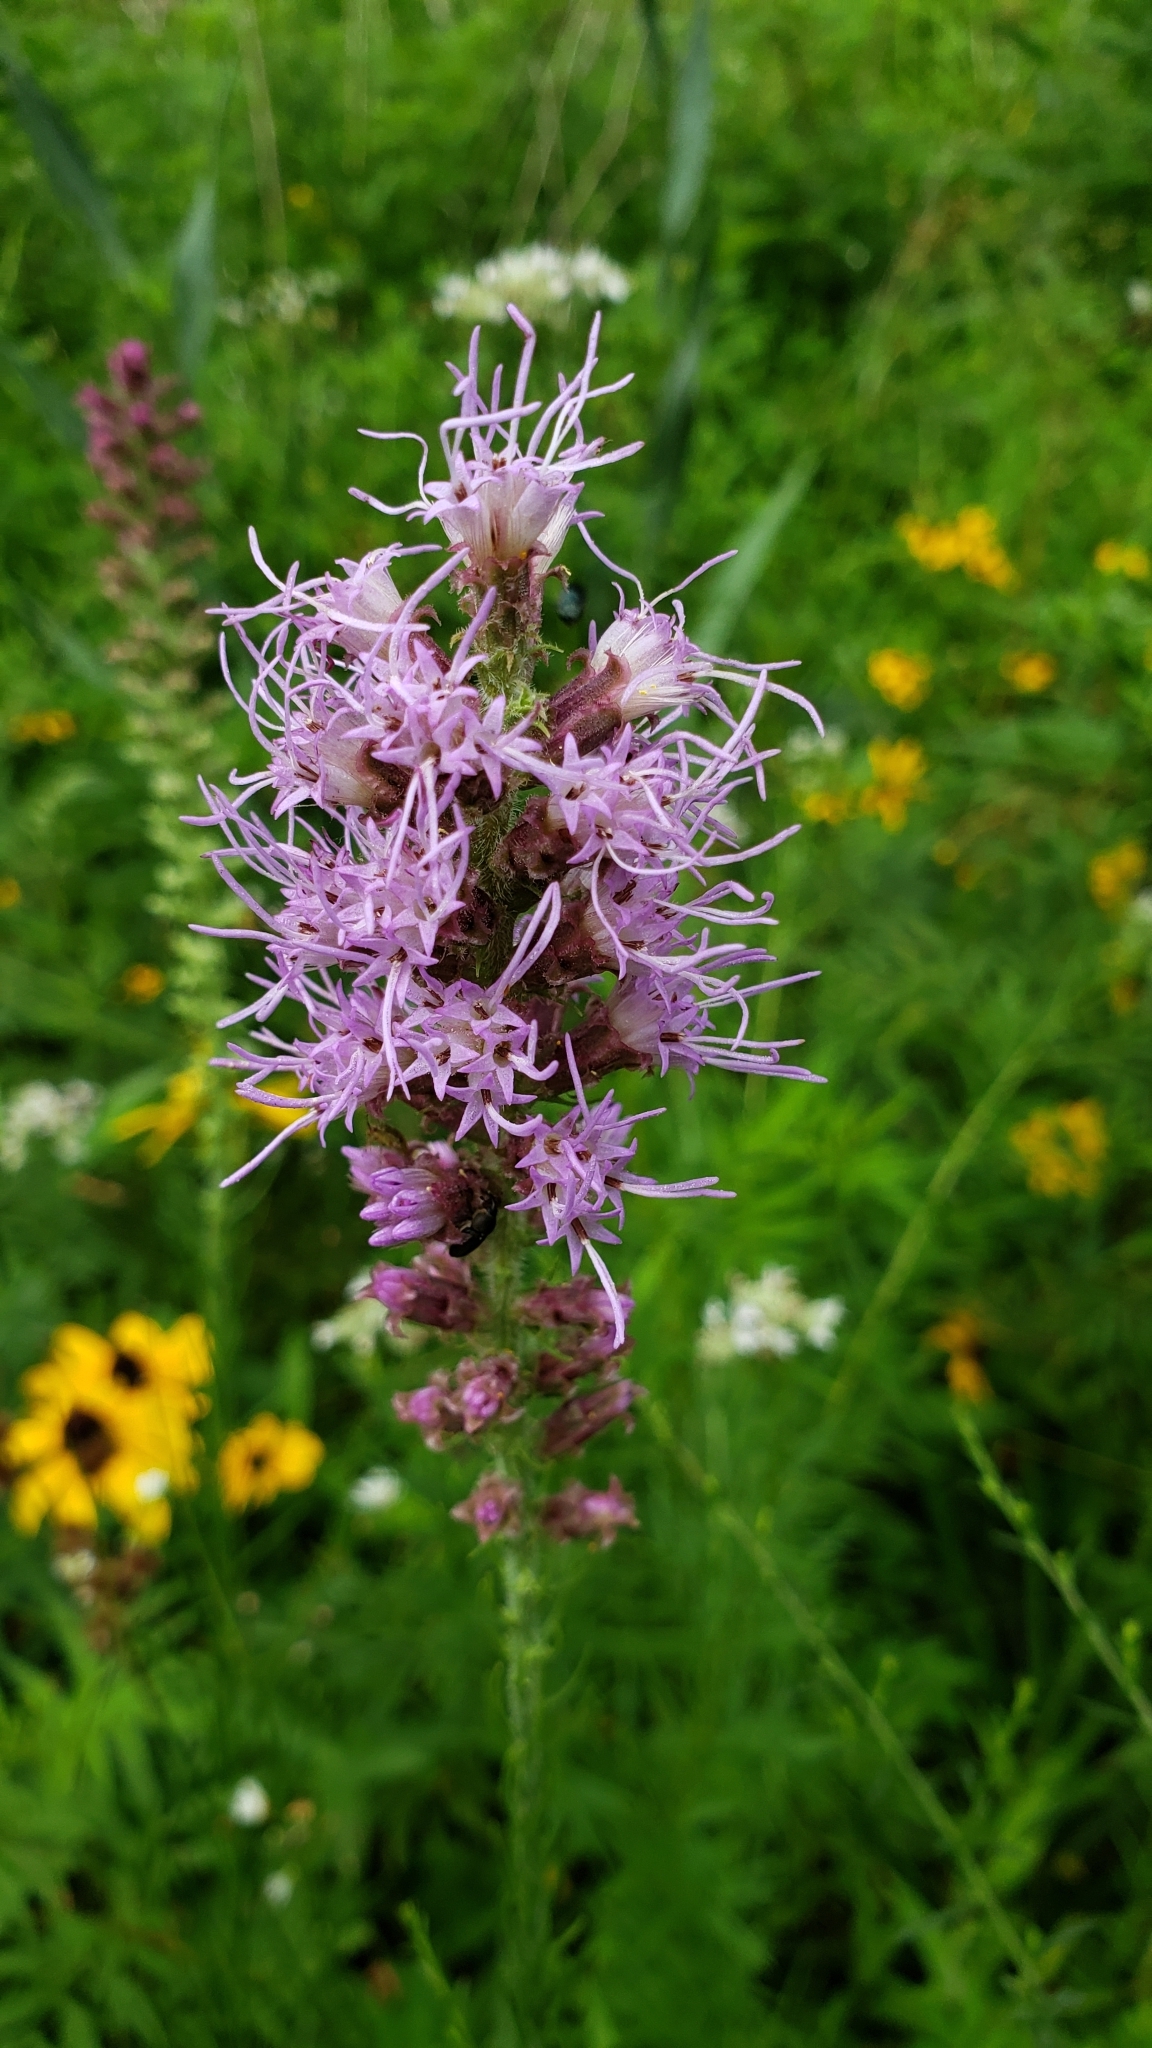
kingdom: Plantae
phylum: Tracheophyta
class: Magnoliopsida
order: Asterales
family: Asteraceae
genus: Liatris
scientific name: Liatris pycnostachya
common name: Cattail gayfeather
